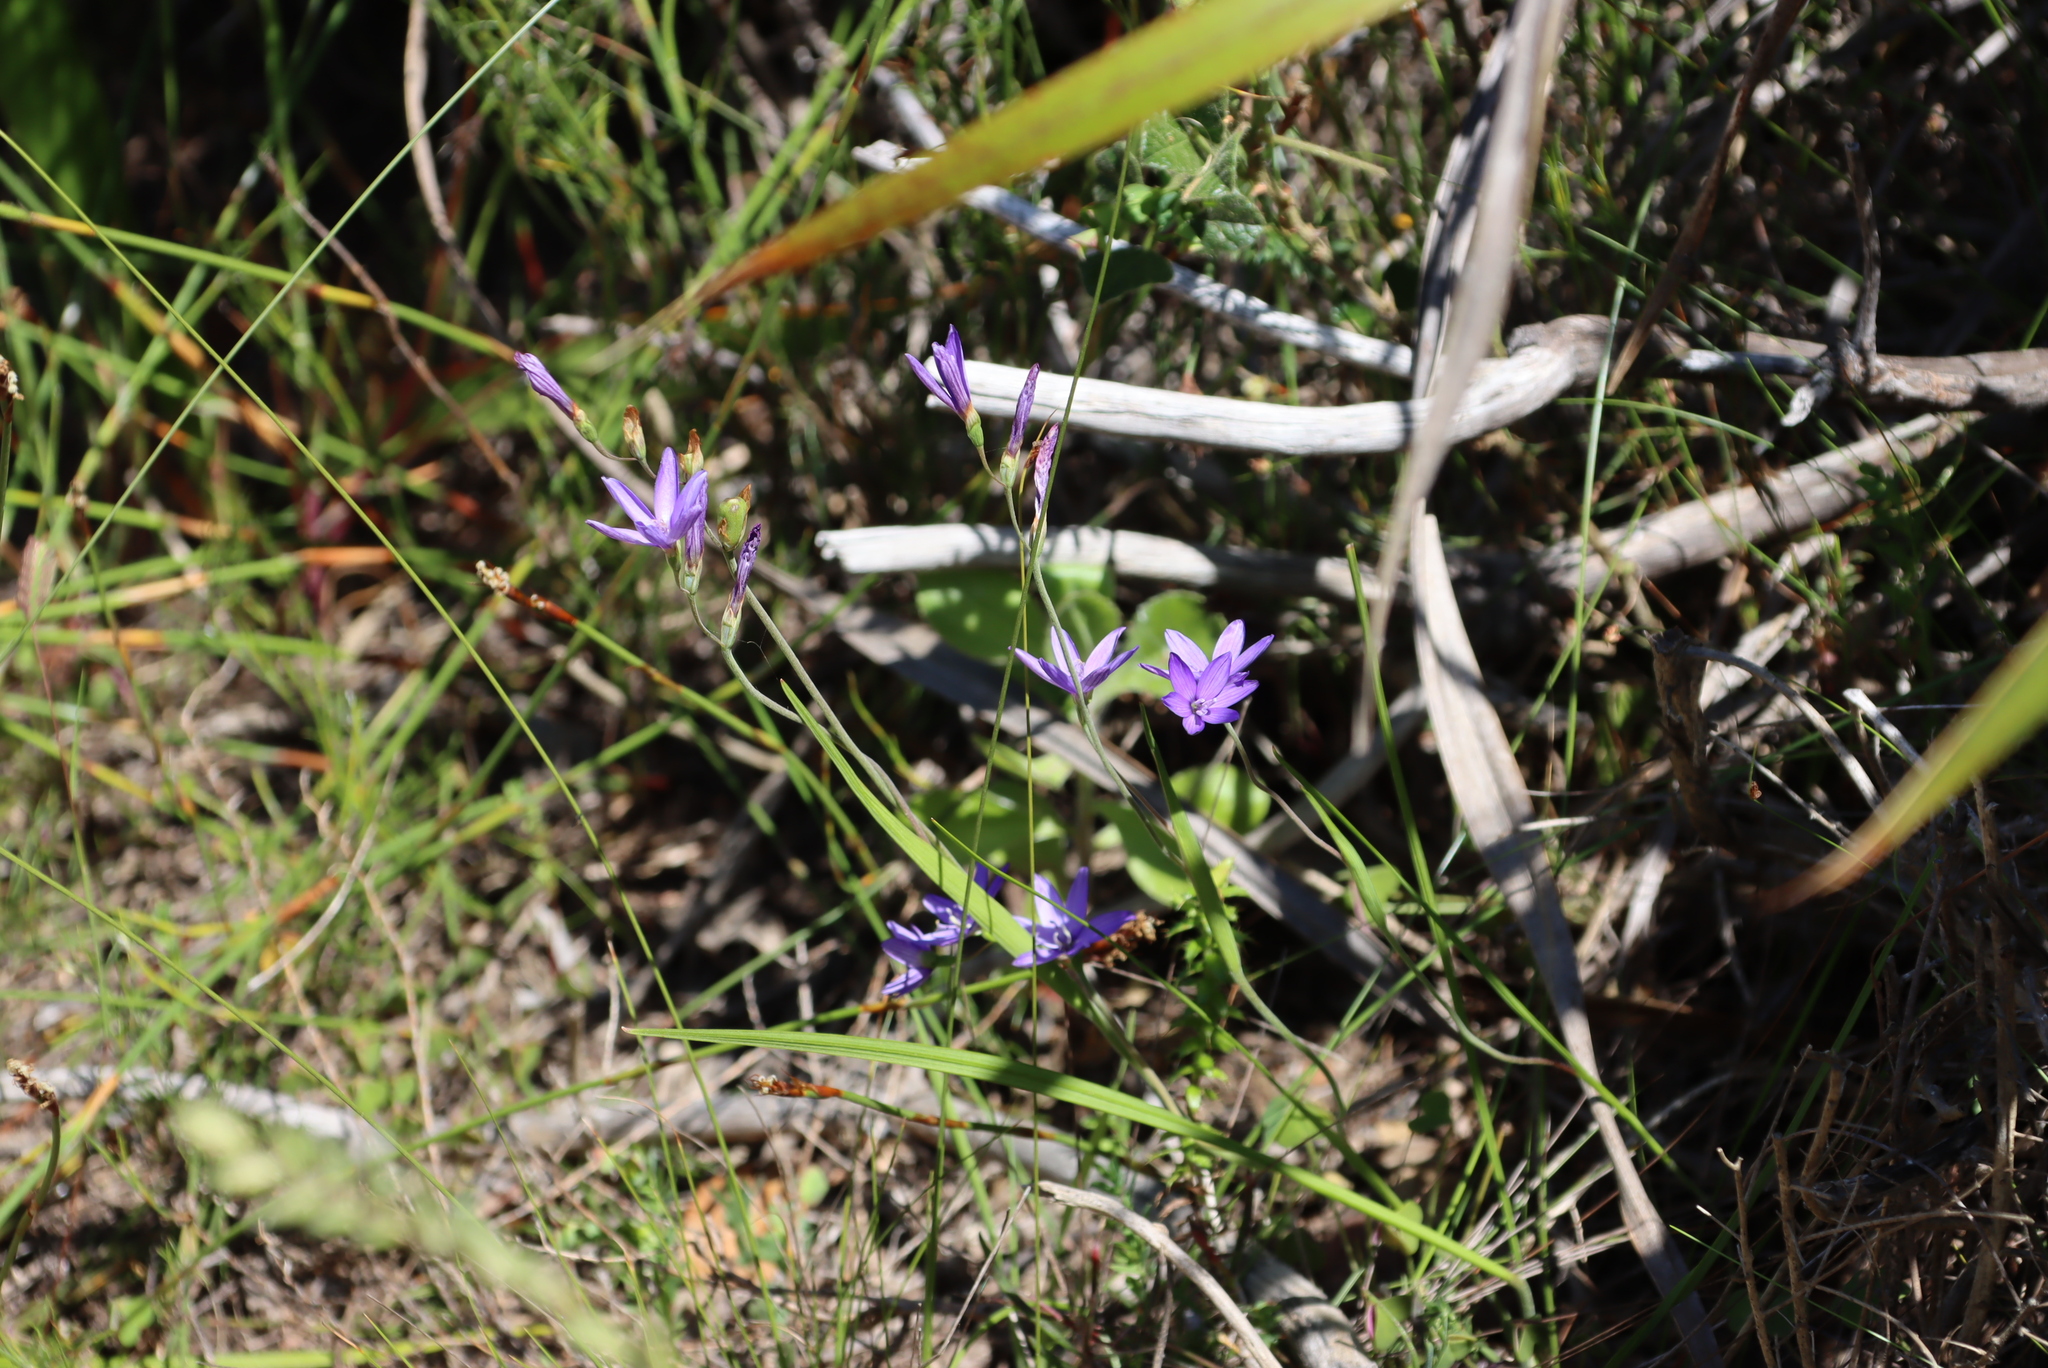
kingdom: Plantae
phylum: Tracheophyta
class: Liliopsida
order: Asparagales
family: Iridaceae
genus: Geissorhiza
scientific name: Geissorhiza aspera
